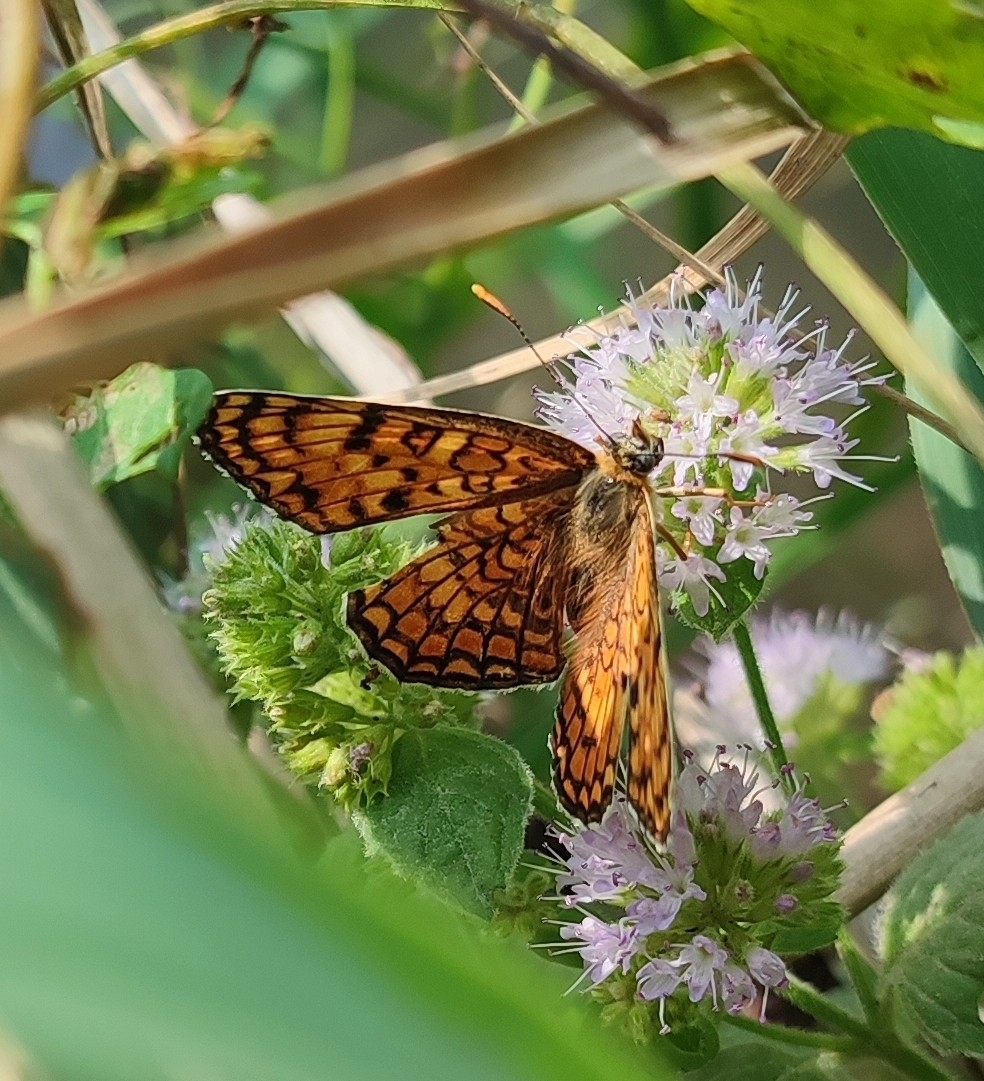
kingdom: Animalia
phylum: Arthropoda
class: Insecta
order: Lepidoptera
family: Nymphalidae
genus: Melitaea
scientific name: Melitaea phoebe
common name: Knapweed fritillary
